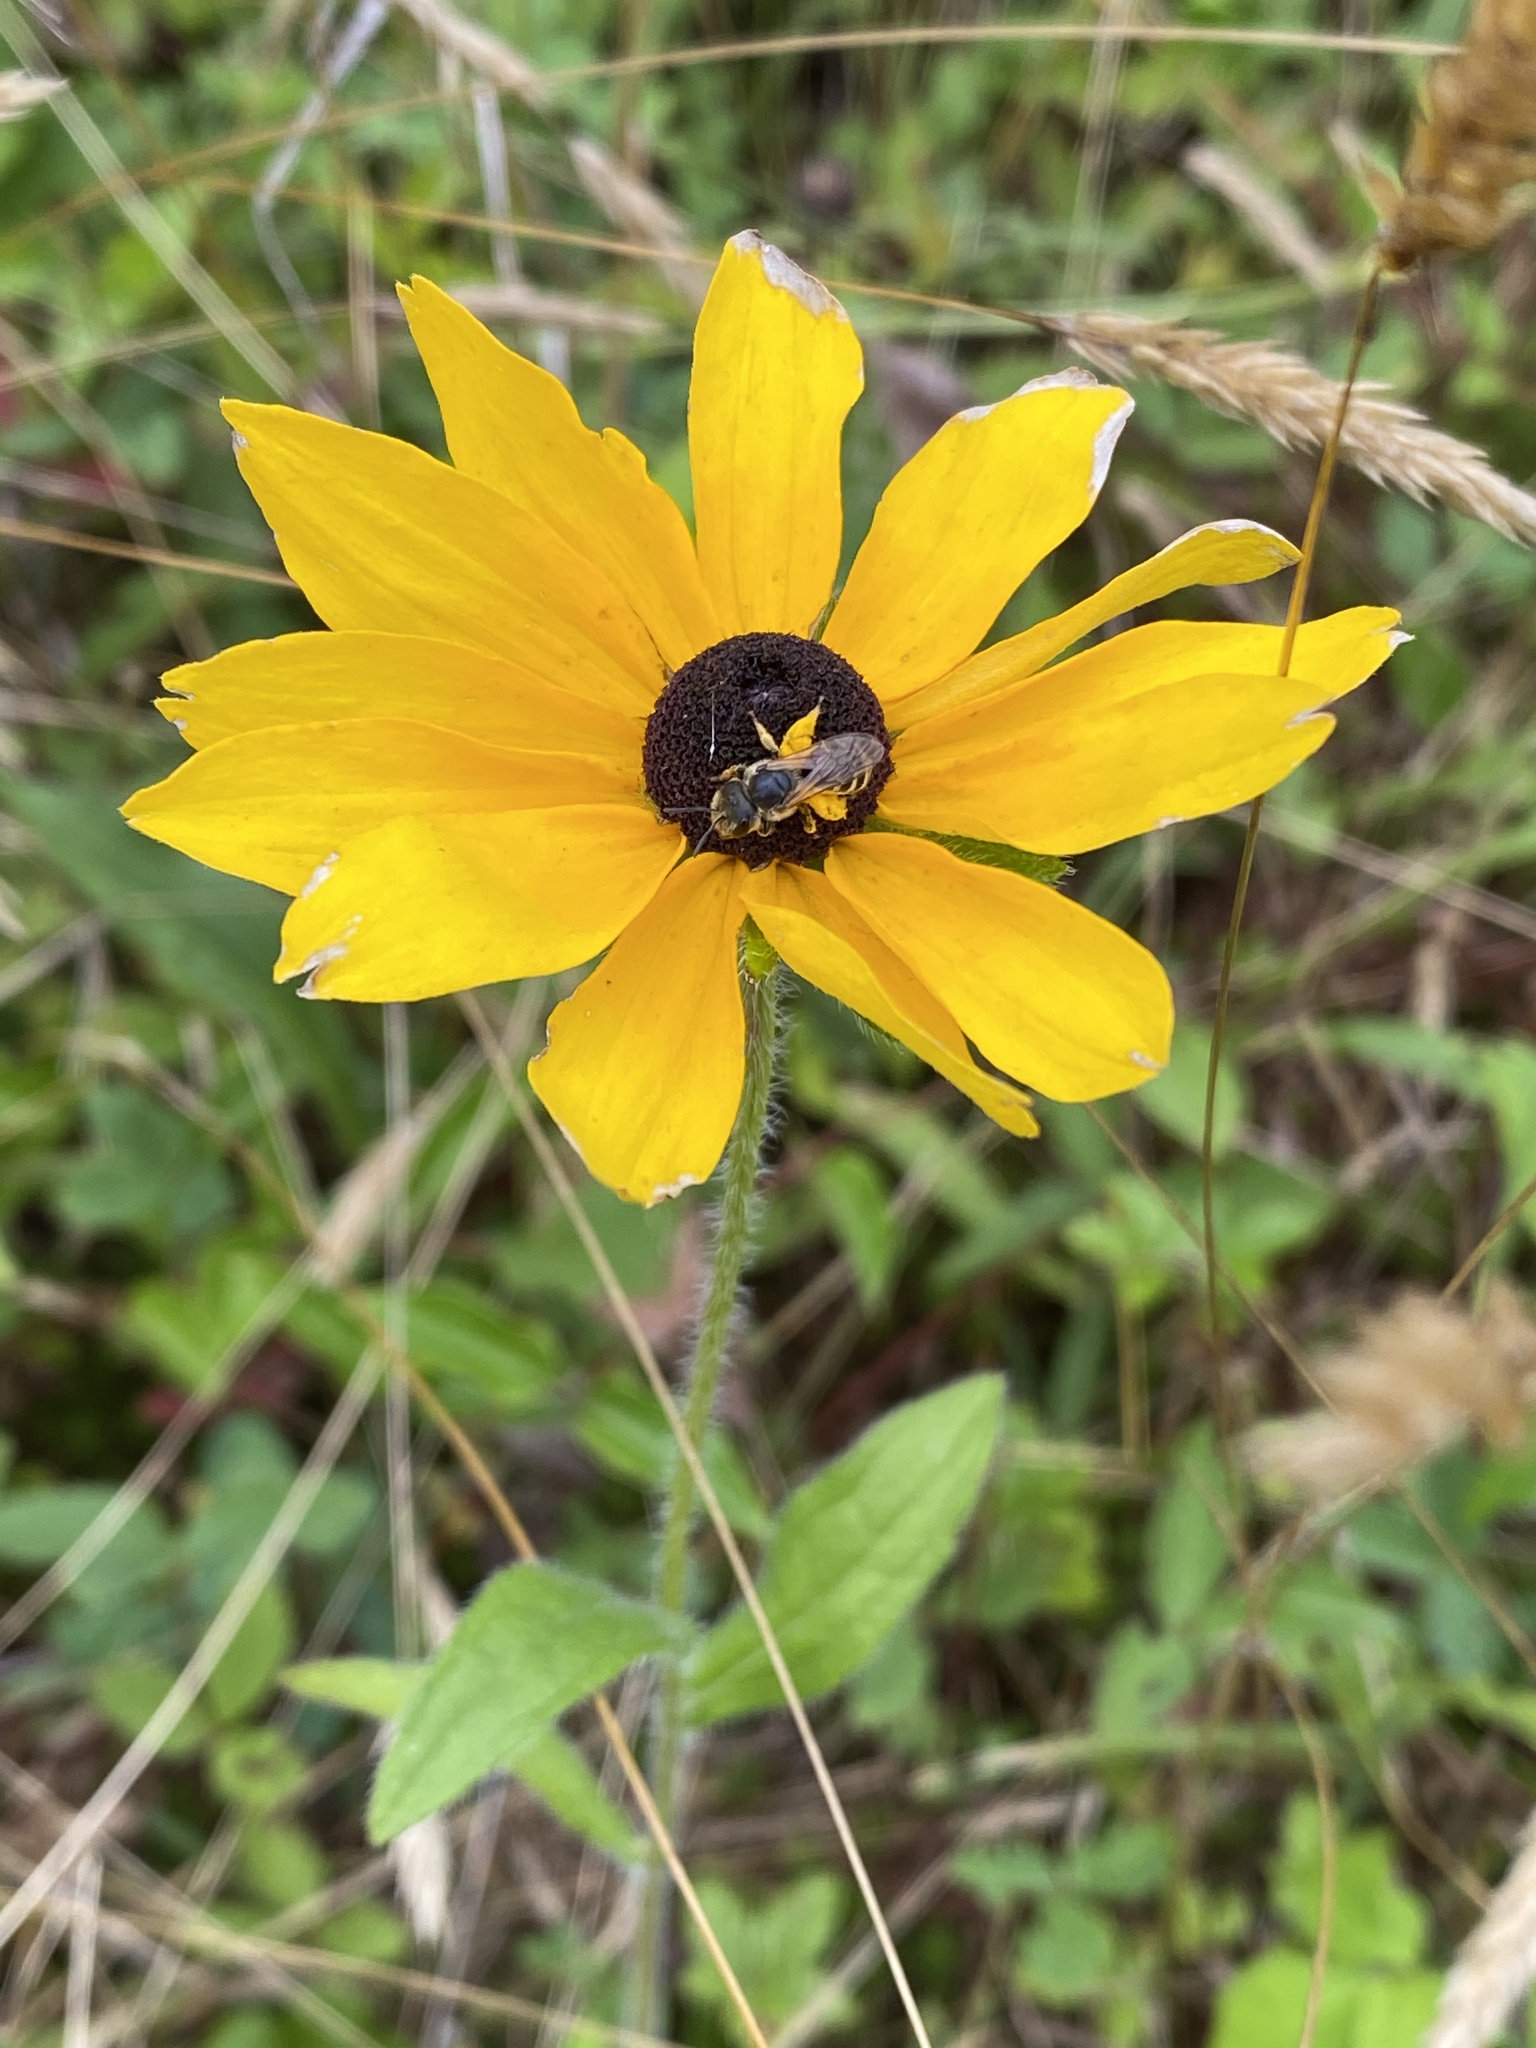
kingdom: Plantae
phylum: Tracheophyta
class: Magnoliopsida
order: Asterales
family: Asteraceae
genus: Rudbeckia
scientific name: Rudbeckia hirta
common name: Black-eyed-susan
